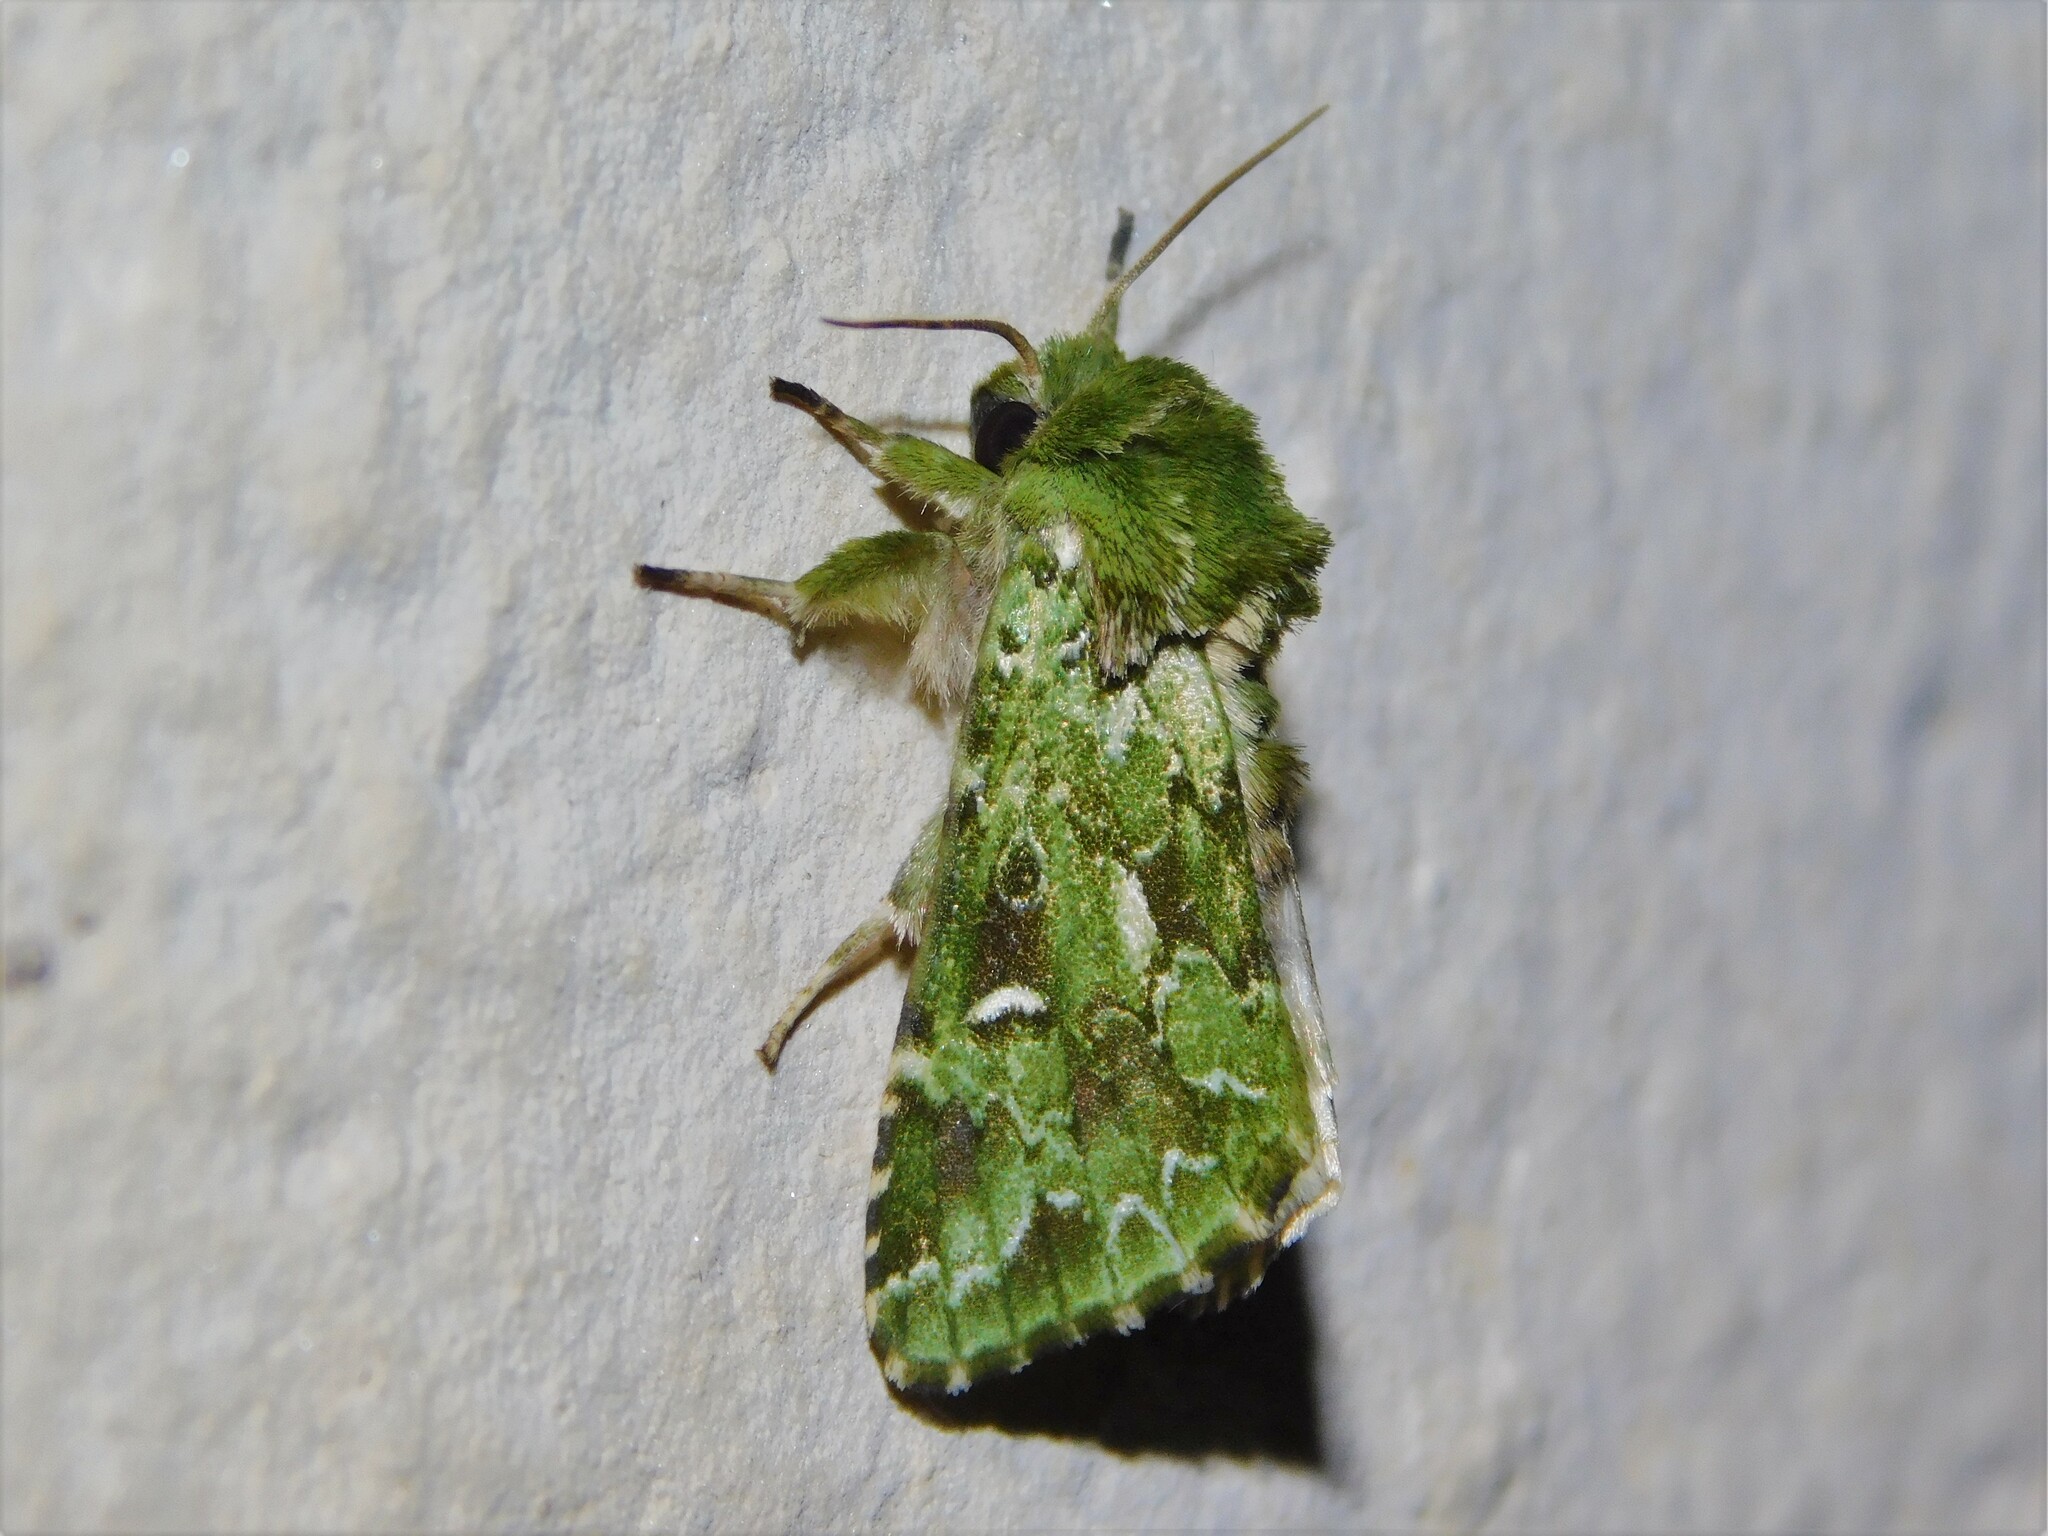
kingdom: Animalia
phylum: Arthropoda
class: Insecta
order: Lepidoptera
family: Noctuidae
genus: Nyodes
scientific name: Nyodes acatharta
